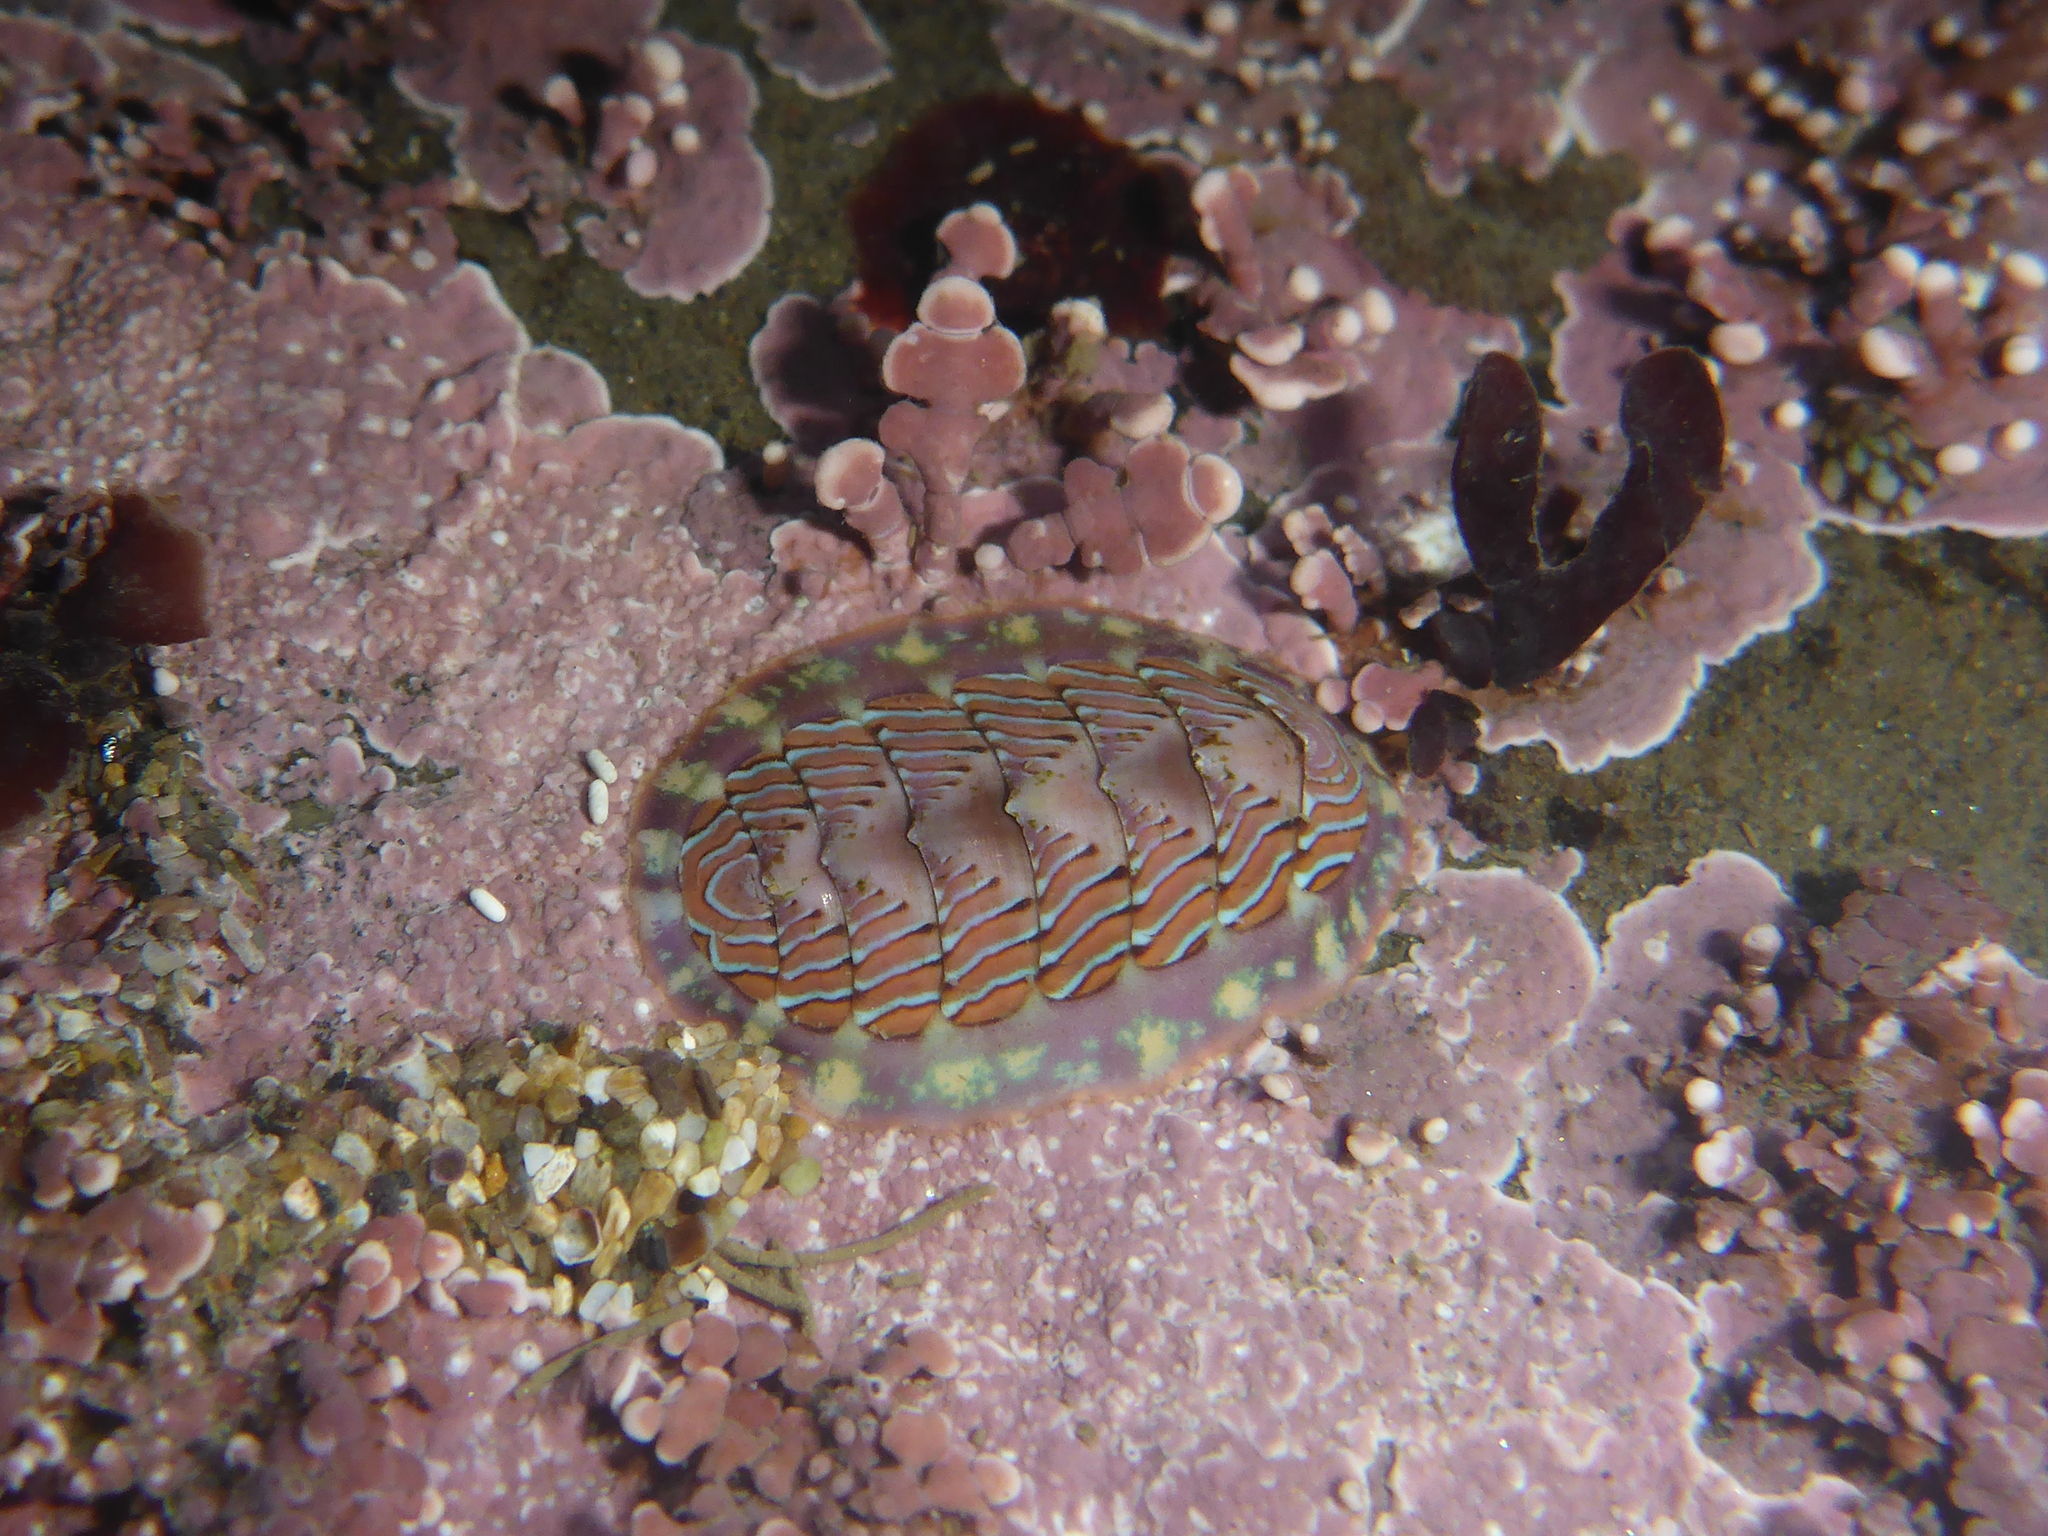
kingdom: Animalia
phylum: Mollusca
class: Polyplacophora
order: Chitonida
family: Tonicellidae
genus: Tonicella
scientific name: Tonicella lineata
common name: Lined chiton
